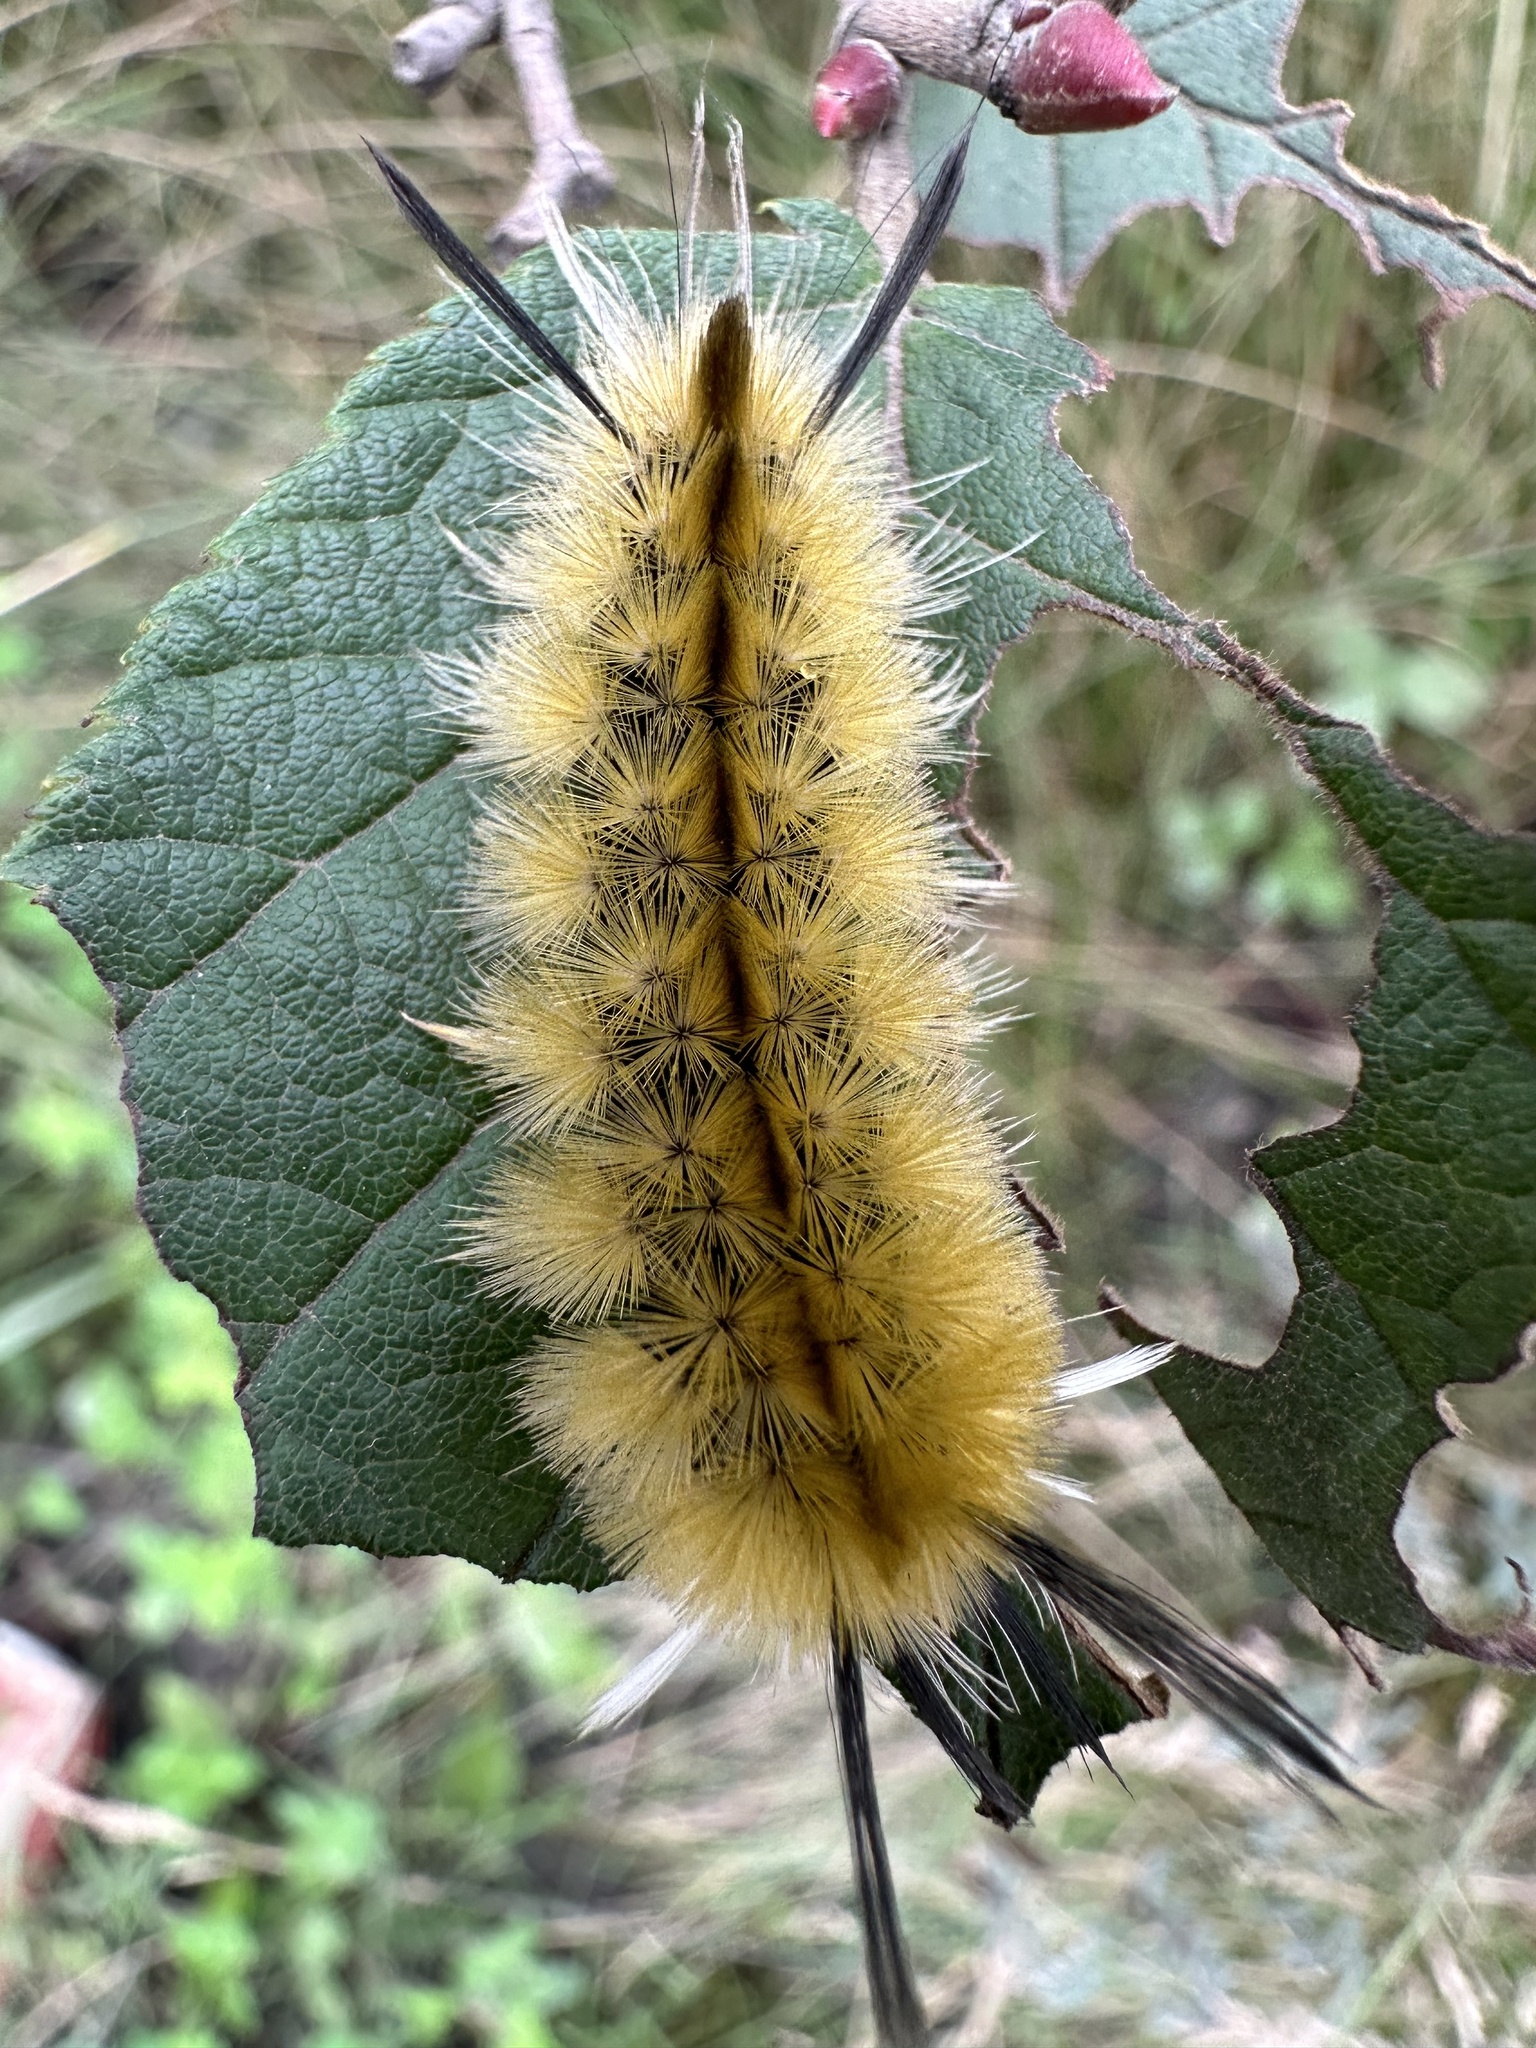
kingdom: Animalia
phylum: Arthropoda
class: Insecta
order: Lepidoptera
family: Erebidae
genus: Halysidota
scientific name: Halysidota tessellaris
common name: Banded tussock moth
